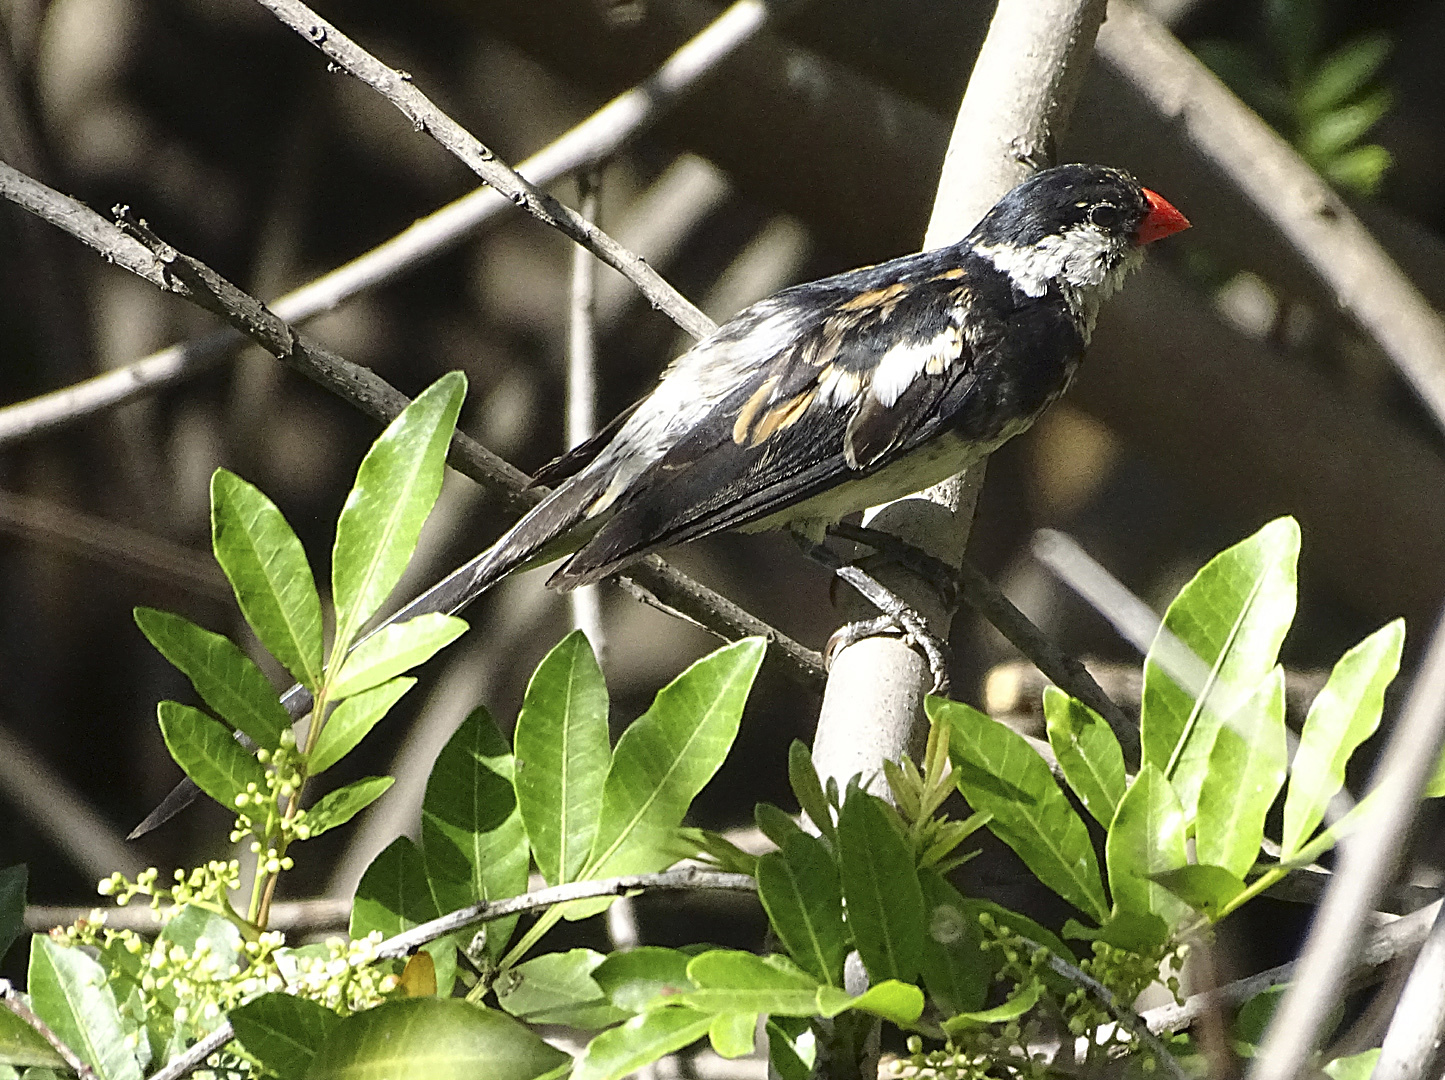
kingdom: Animalia
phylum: Chordata
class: Aves
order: Passeriformes
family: Viduidae
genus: Vidua
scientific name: Vidua macroura
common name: Pin-tailed whydah
